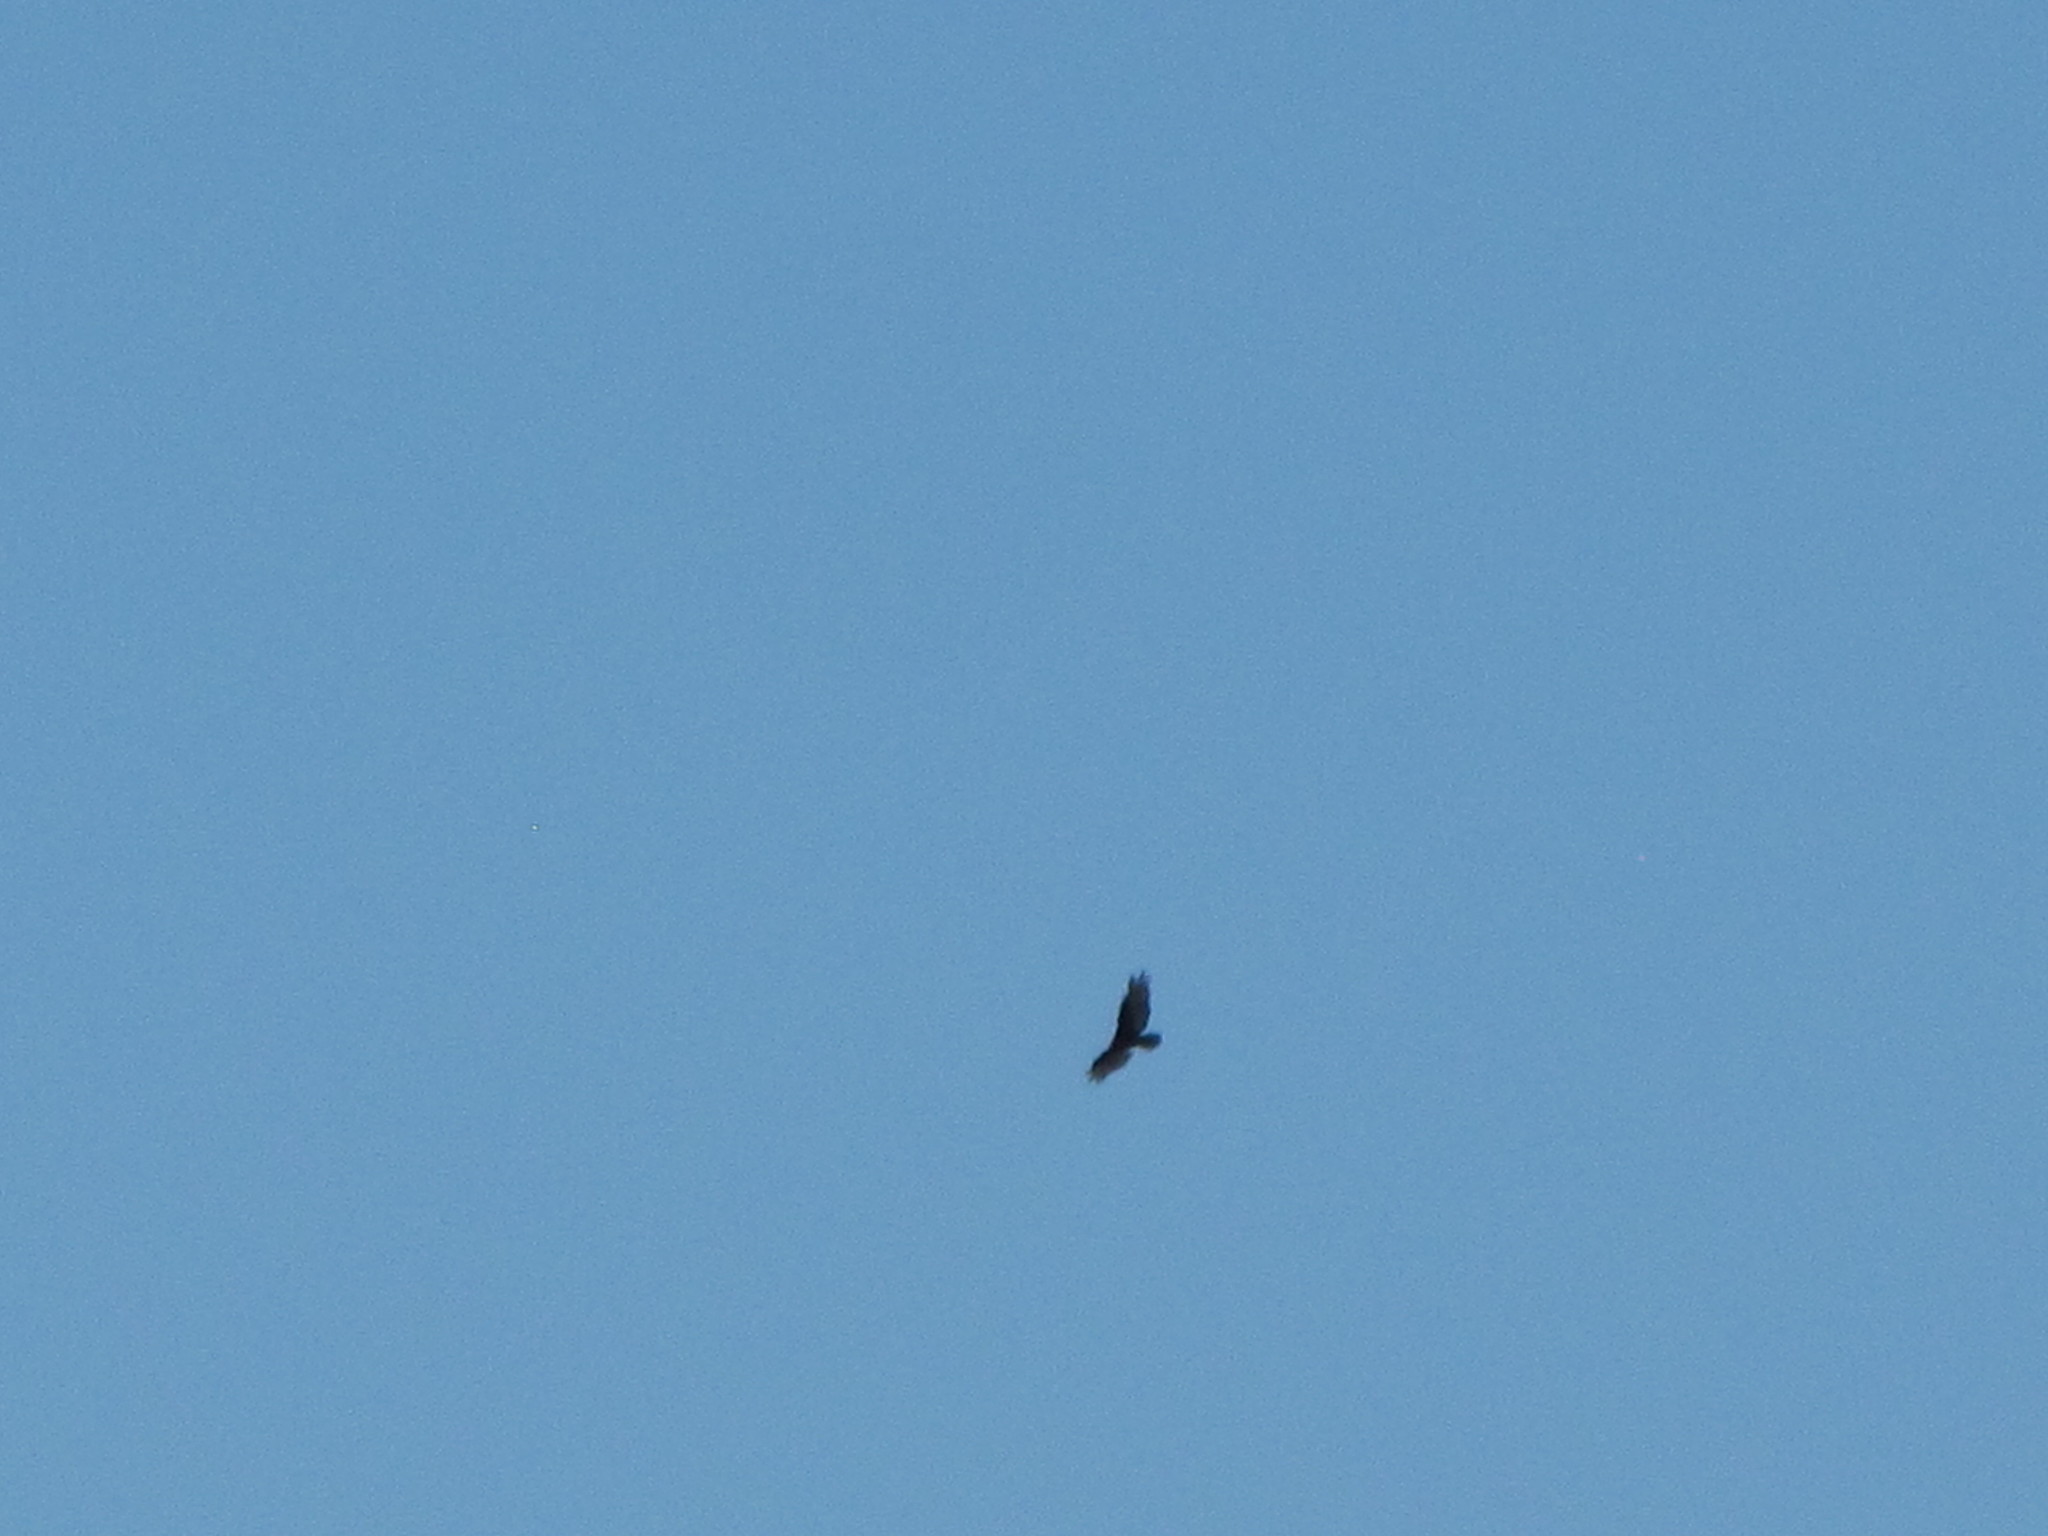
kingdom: Animalia
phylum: Chordata
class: Aves
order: Accipitriformes
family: Cathartidae
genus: Cathartes
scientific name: Cathartes aura
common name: Turkey vulture
